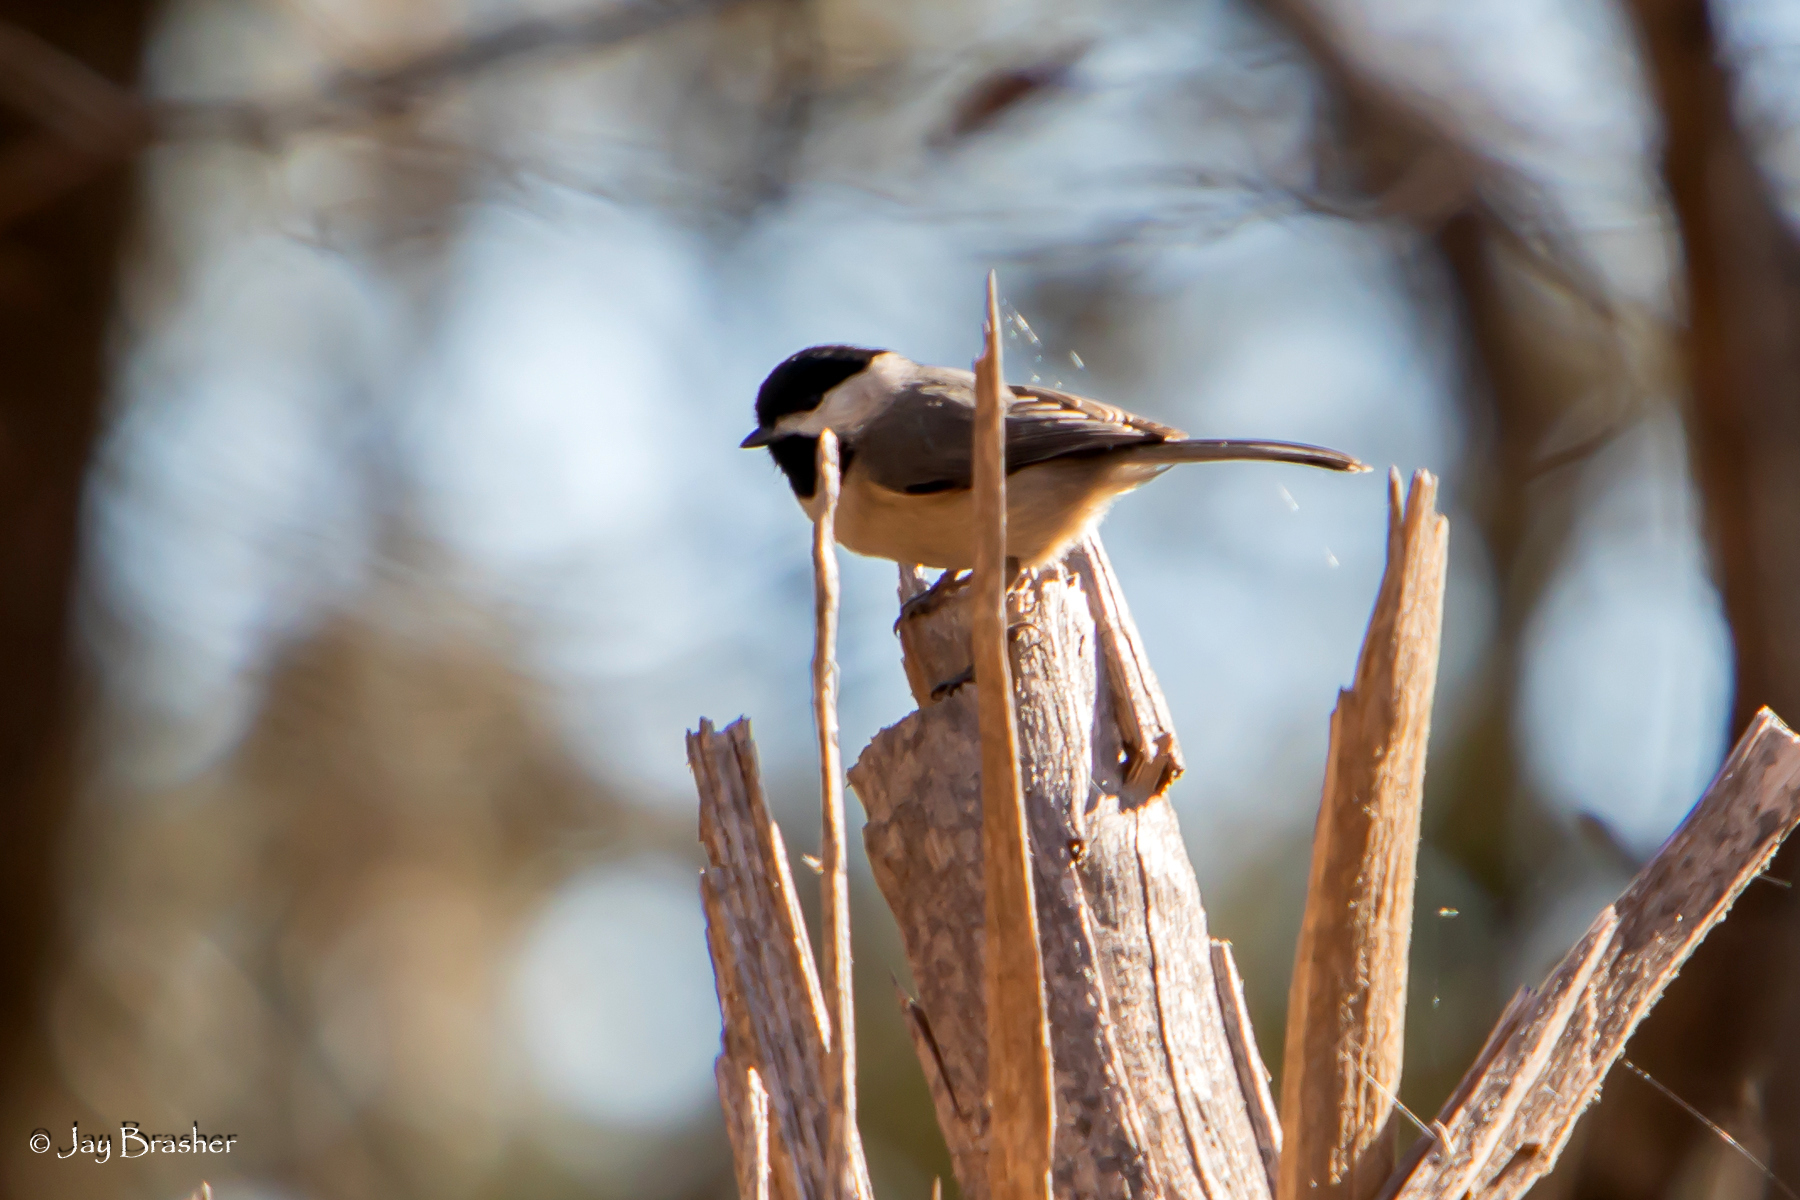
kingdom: Animalia
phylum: Chordata
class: Aves
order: Passeriformes
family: Paridae
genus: Poecile
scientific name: Poecile carolinensis
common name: Carolina chickadee
